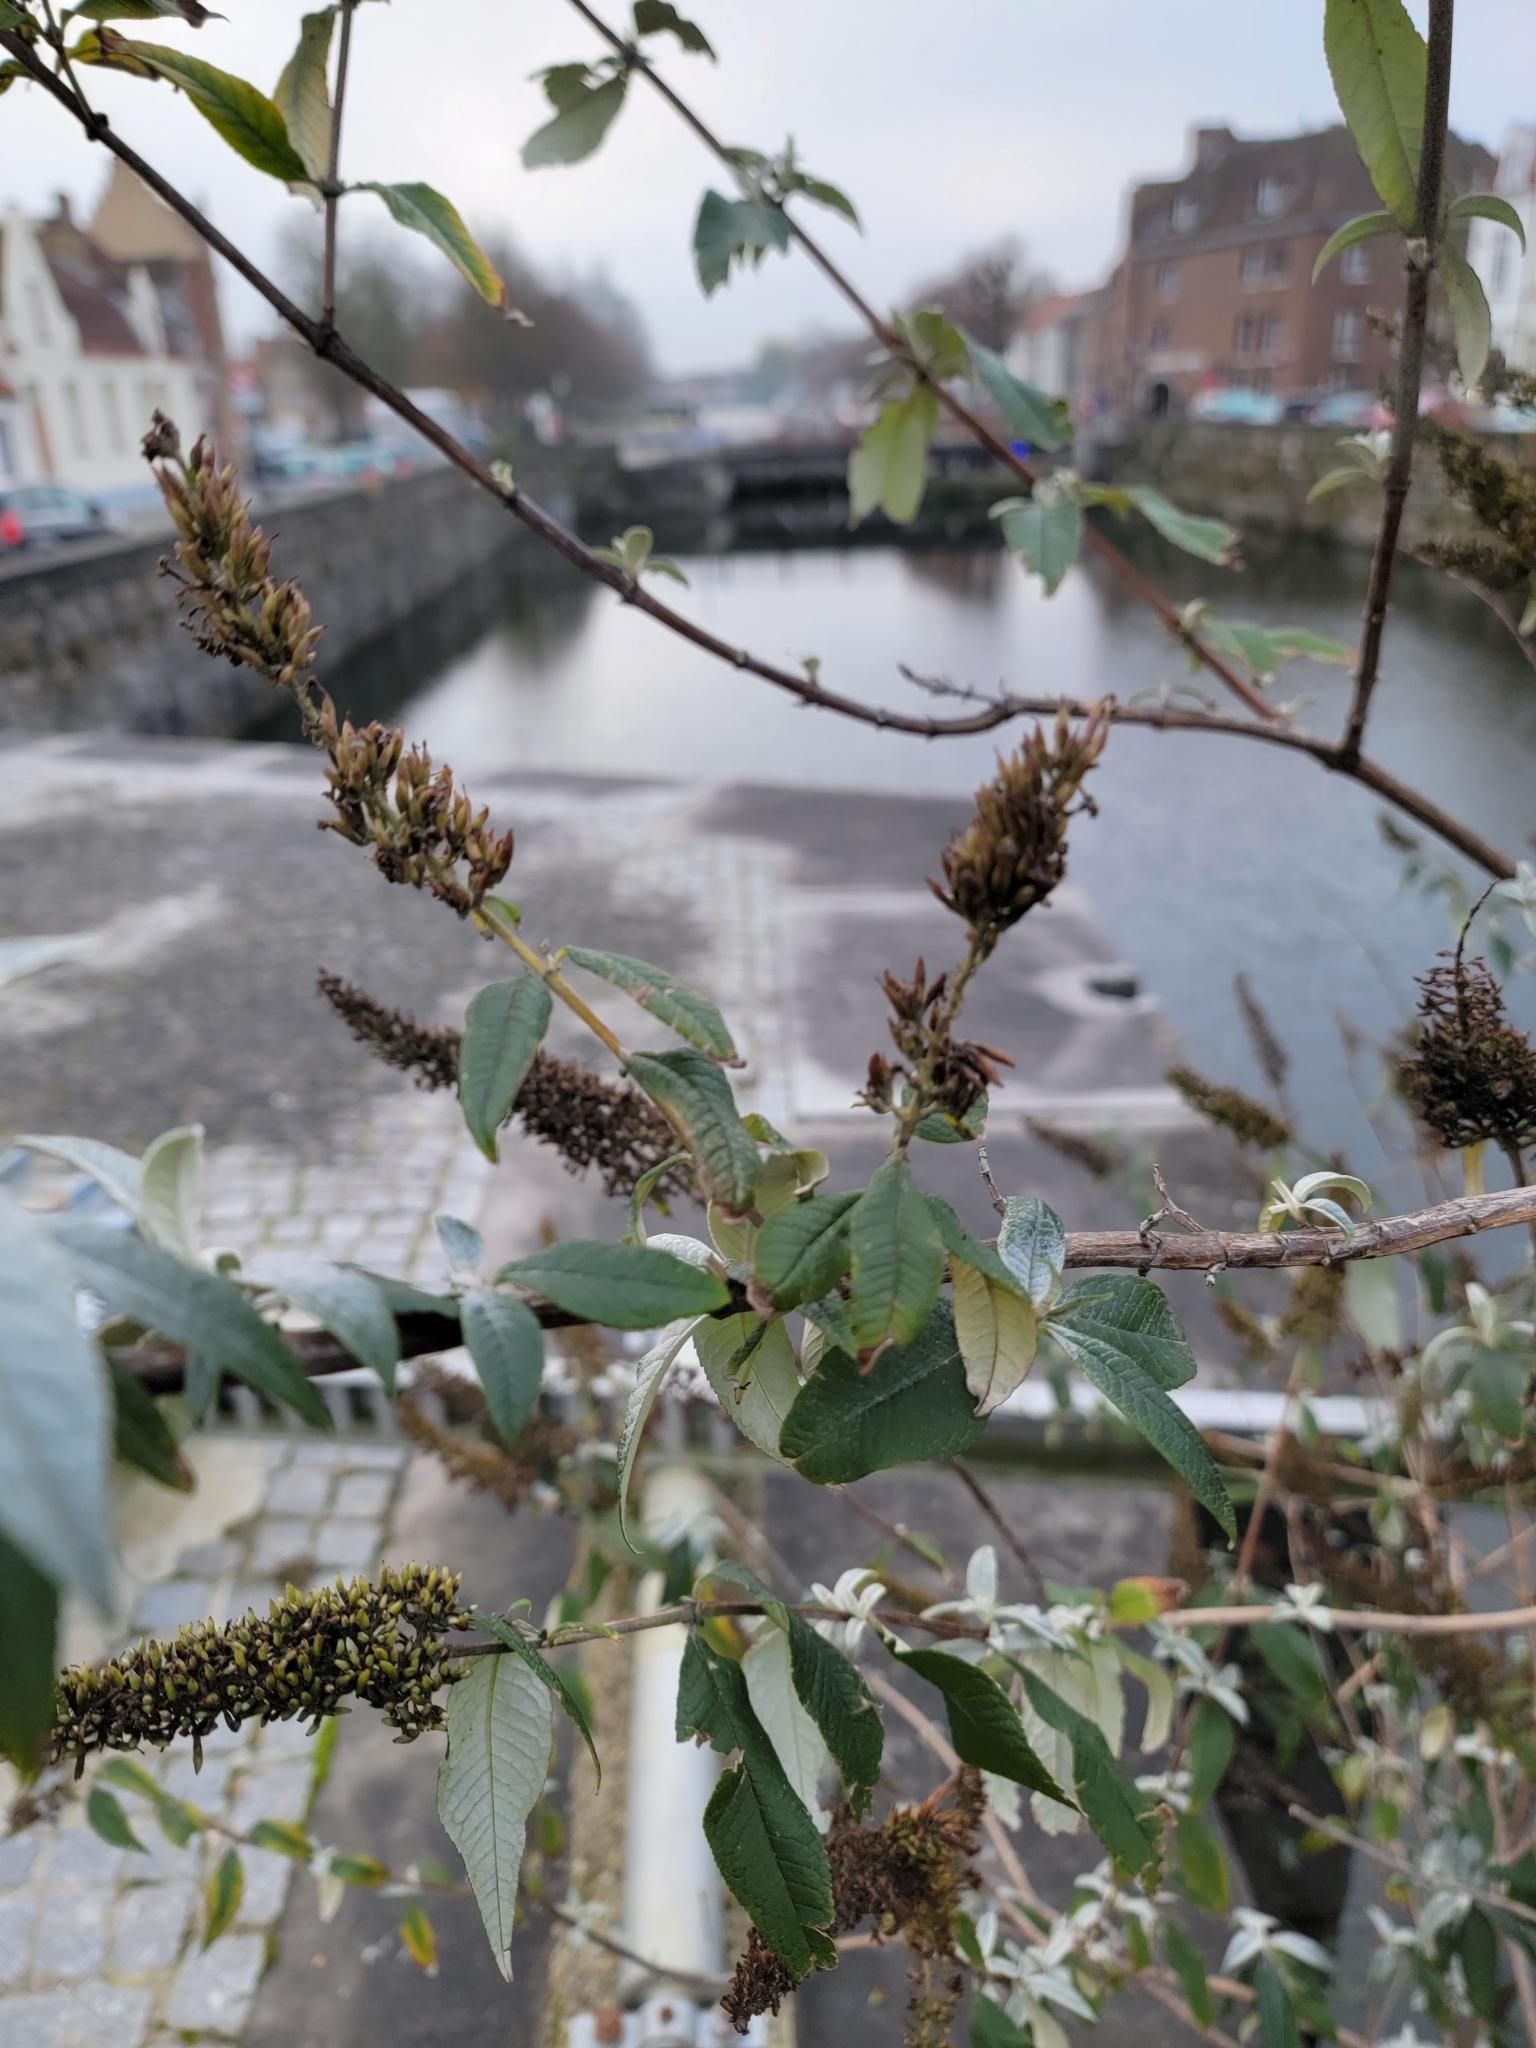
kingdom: Plantae
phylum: Tracheophyta
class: Magnoliopsida
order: Lamiales
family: Scrophulariaceae
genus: Buddleja
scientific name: Buddleja davidii
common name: Butterfly-bush
